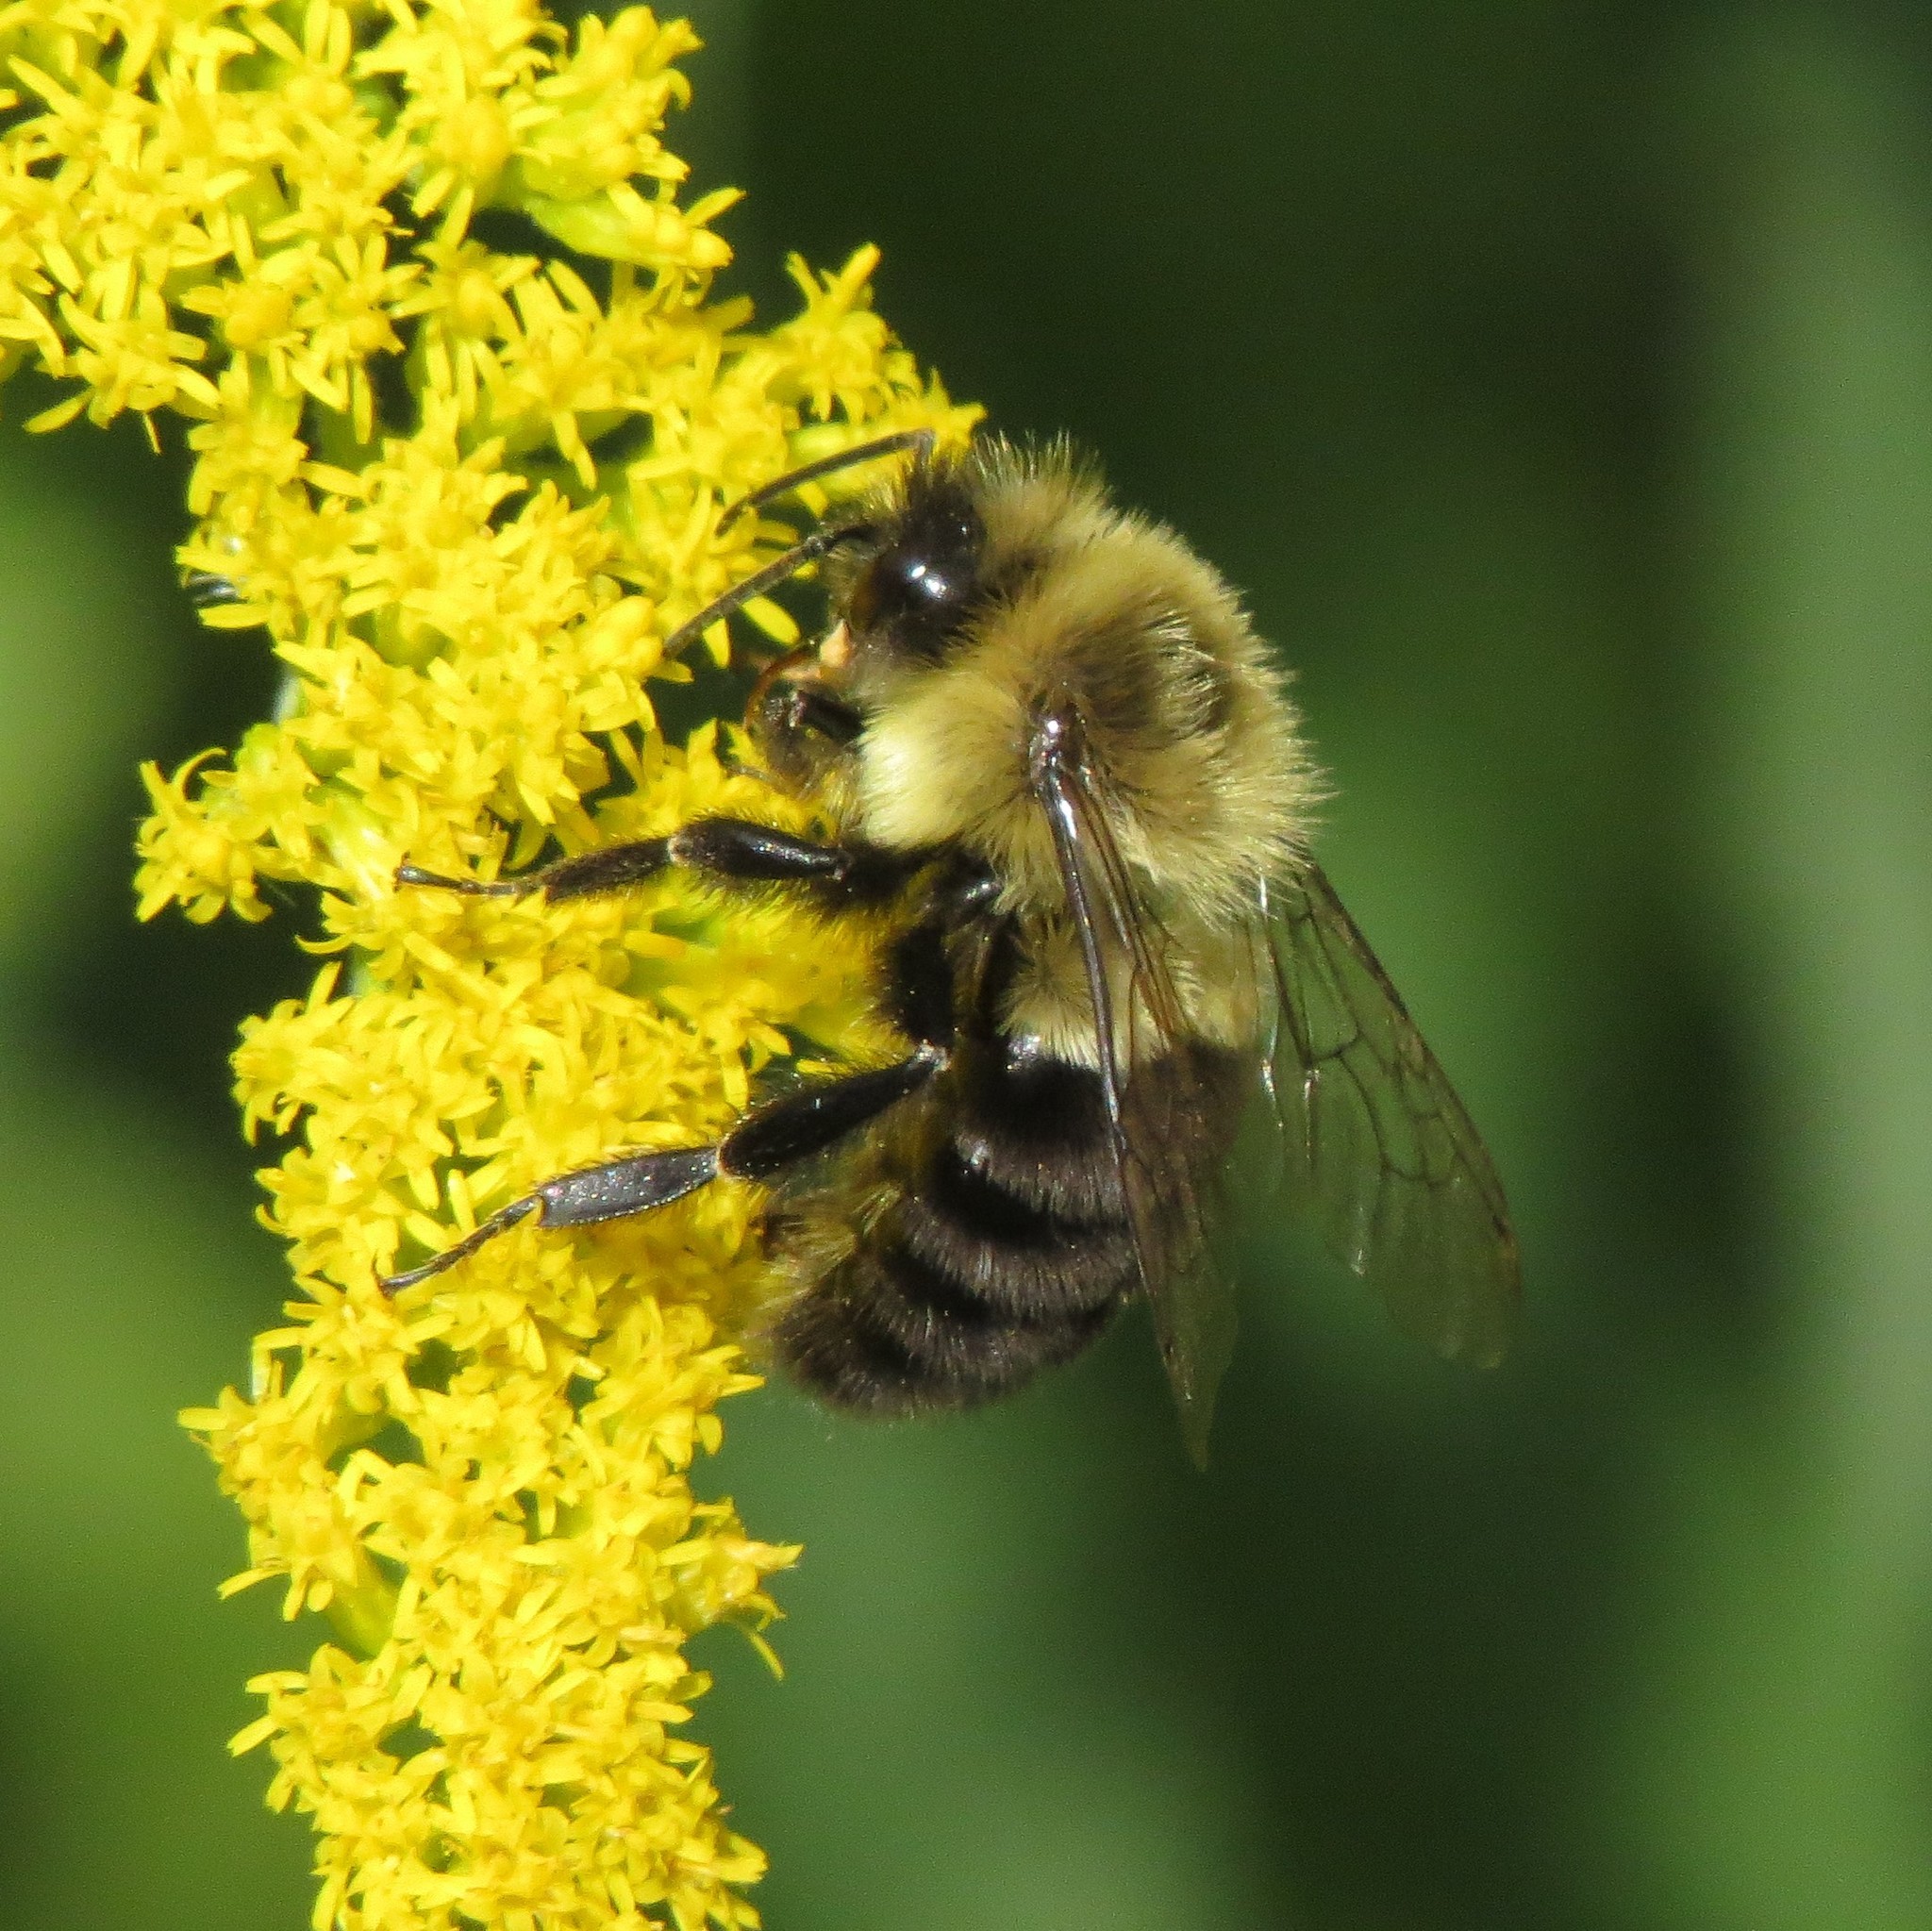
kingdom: Animalia
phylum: Arthropoda
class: Insecta
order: Hymenoptera
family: Apidae
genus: Bombus
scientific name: Bombus impatiens
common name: Common eastern bumble bee
